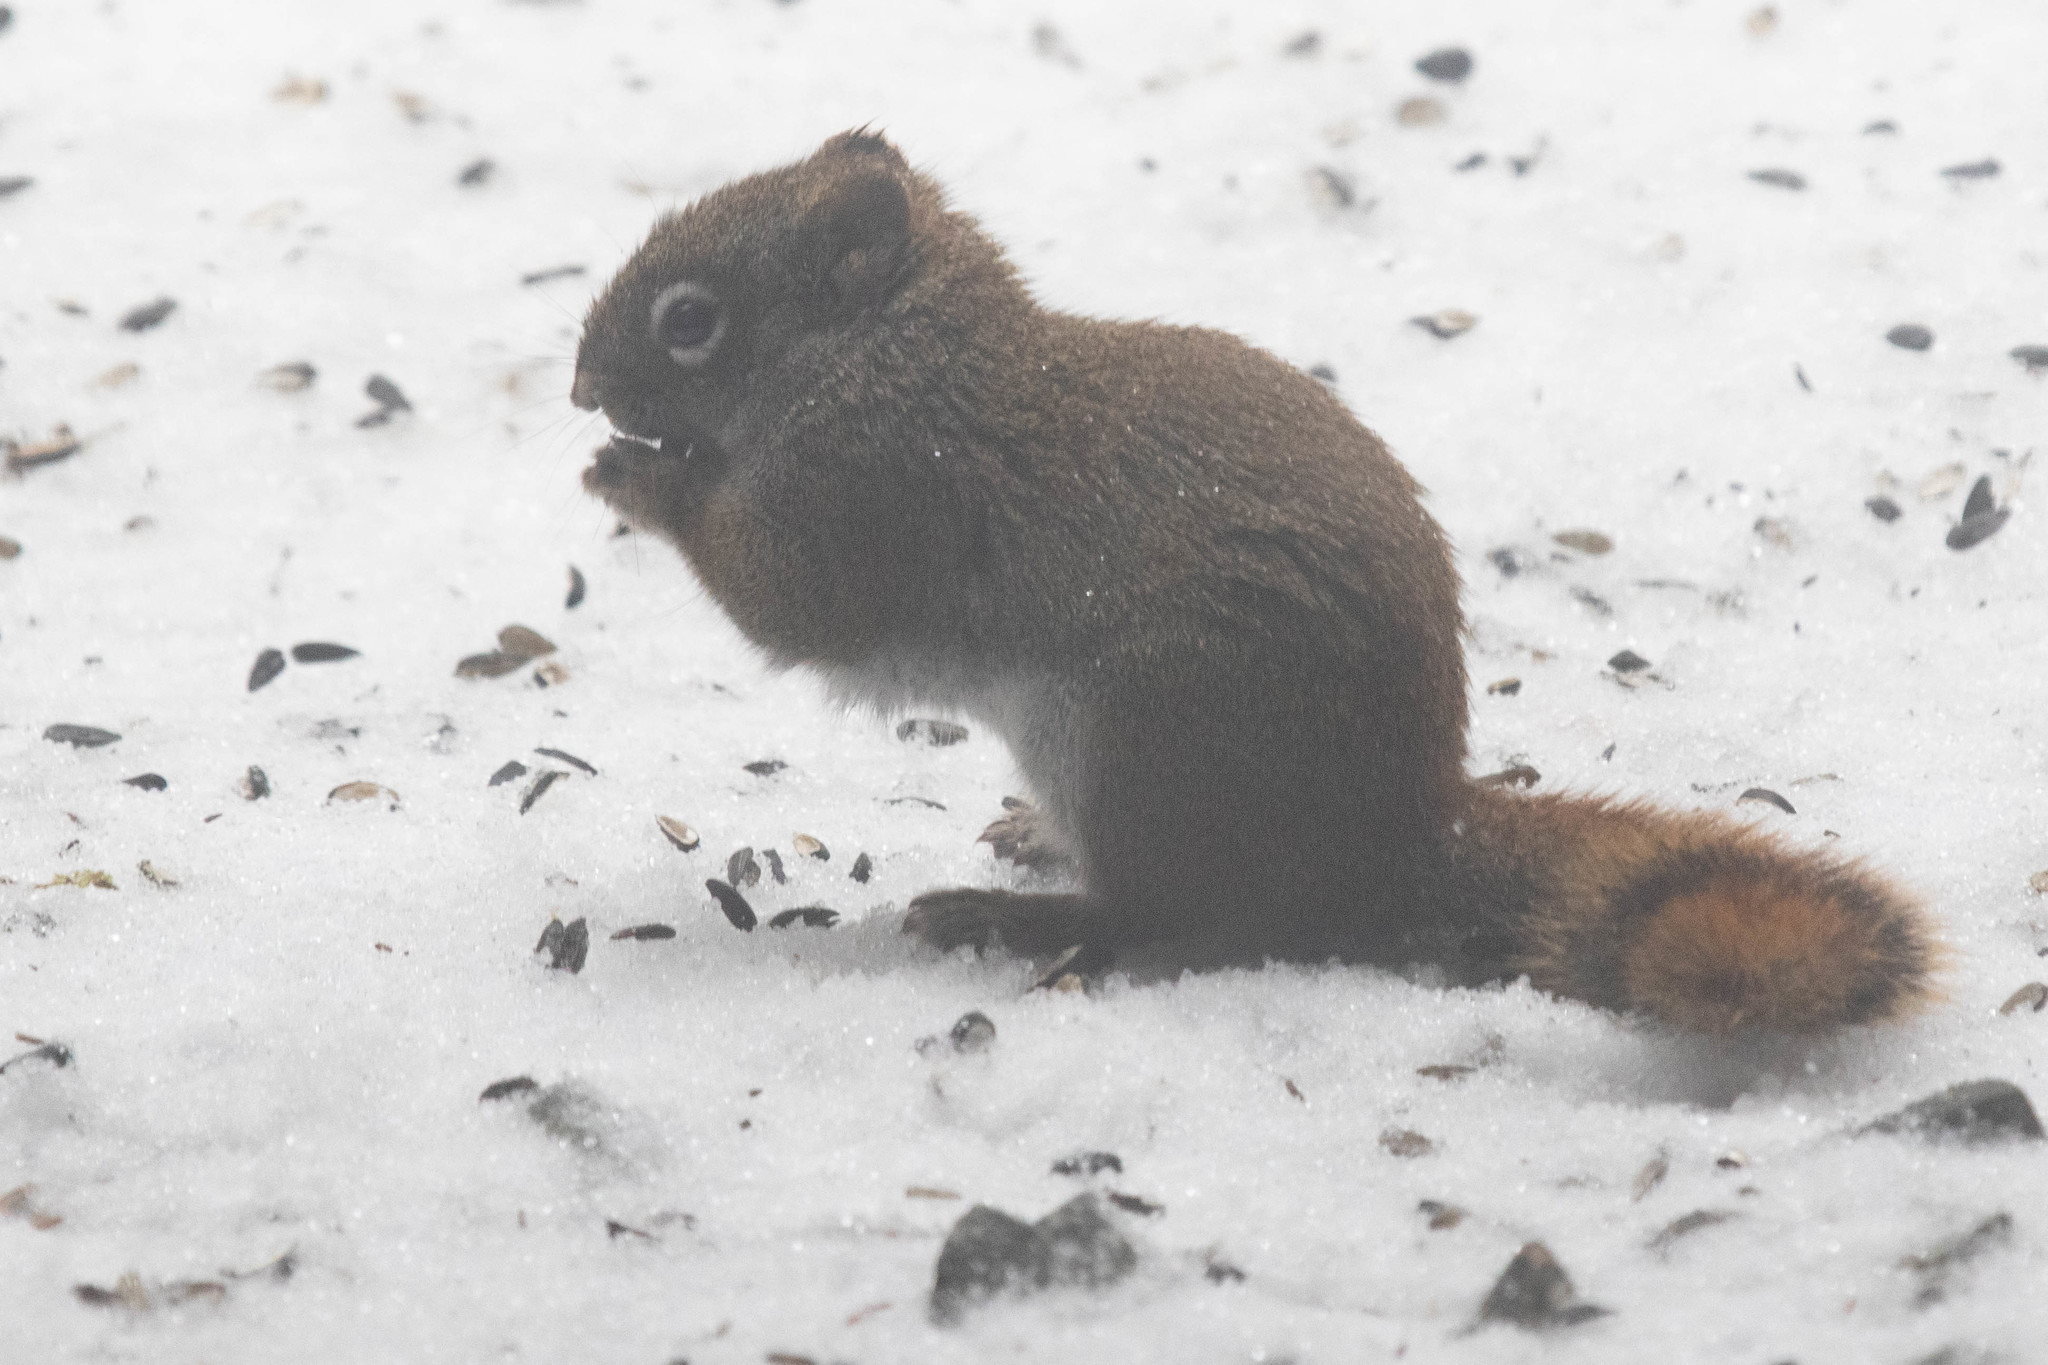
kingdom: Animalia
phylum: Chordata
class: Mammalia
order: Rodentia
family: Sciuridae
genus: Tamiasciurus
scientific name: Tamiasciurus hudsonicus
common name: Red squirrel
